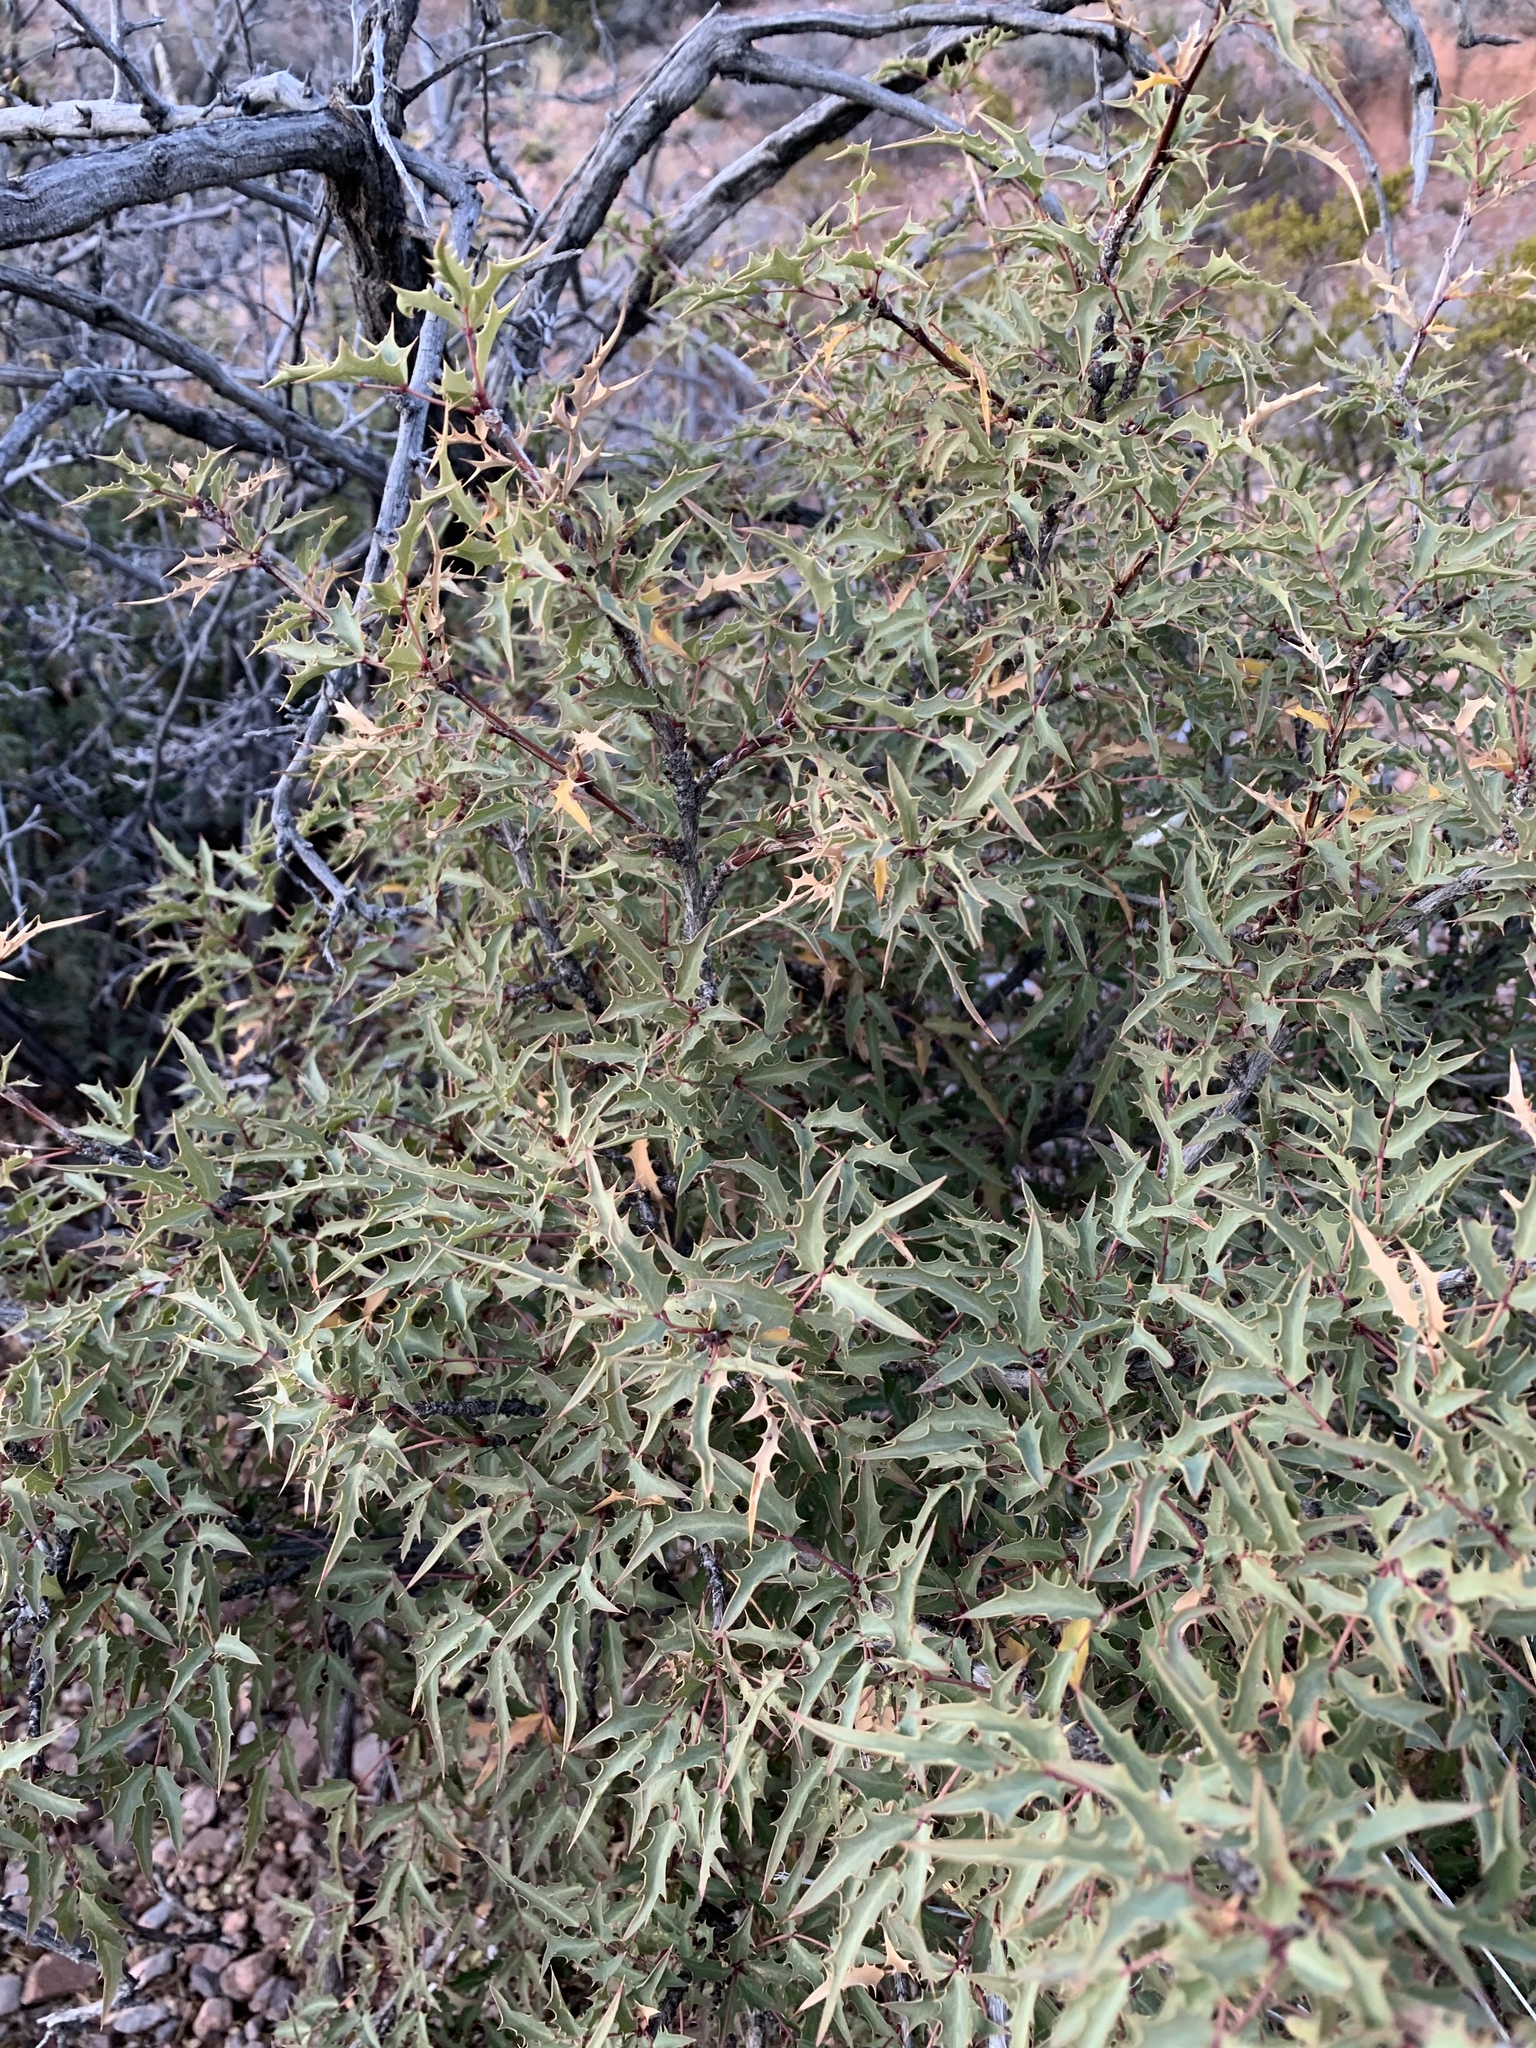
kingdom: Plantae
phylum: Tracheophyta
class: Magnoliopsida
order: Ranunculales
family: Berberidaceae
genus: Alloberberis
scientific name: Alloberberis haematocarpa
